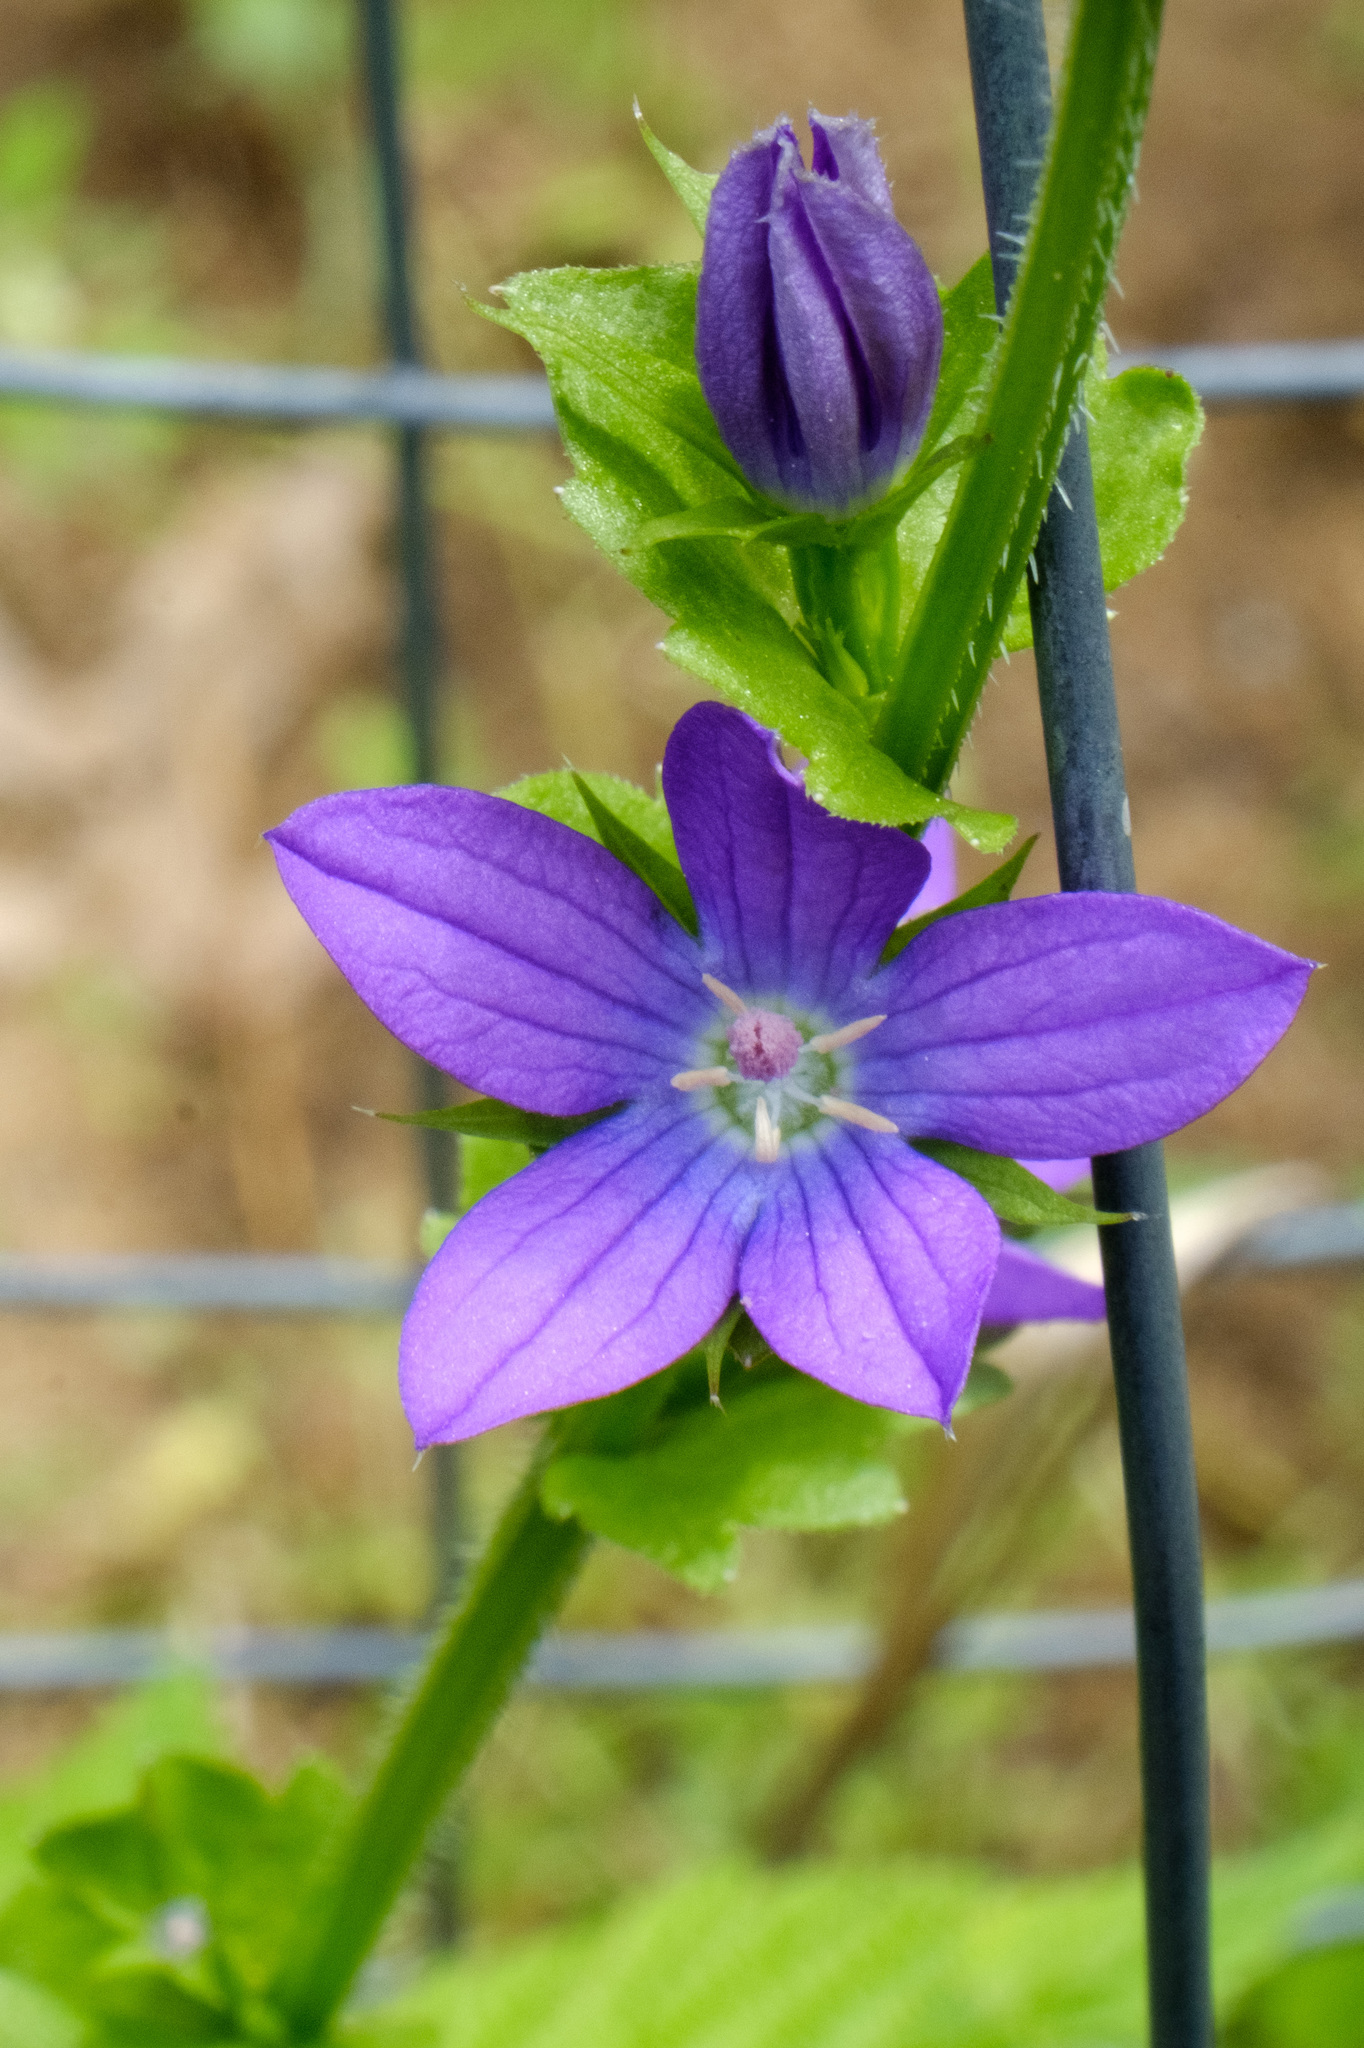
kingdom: Plantae
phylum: Tracheophyta
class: Magnoliopsida
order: Asterales
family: Campanulaceae
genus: Triodanis
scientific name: Triodanis perfoliata
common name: Clasping venus' looking-glass
